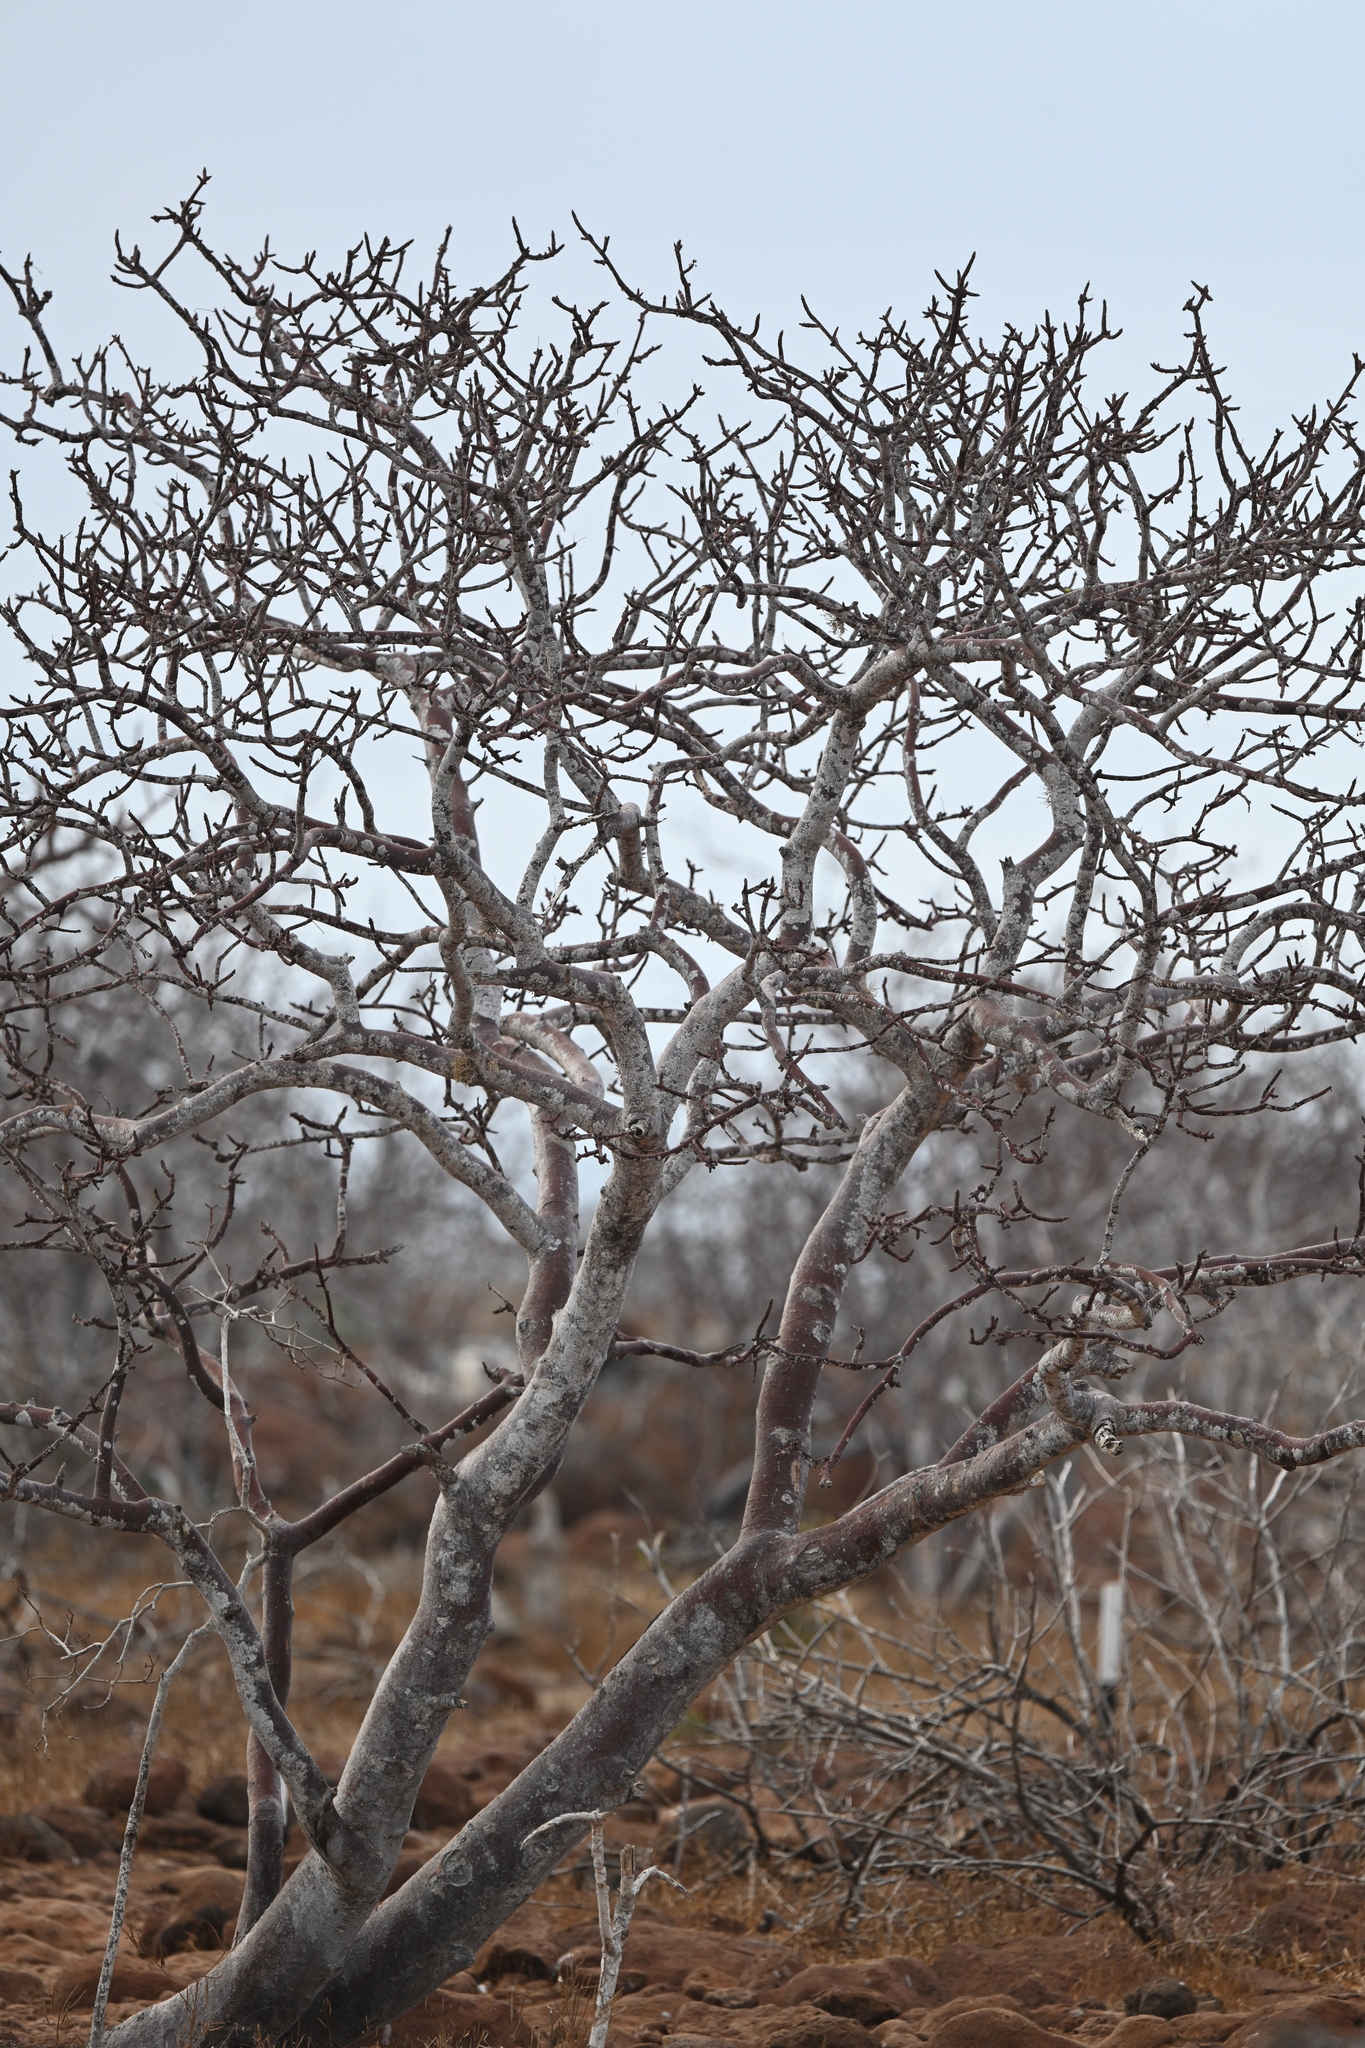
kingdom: Plantae
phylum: Tracheophyta
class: Magnoliopsida
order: Sapindales
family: Burseraceae
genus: Bursera
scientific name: Bursera graveolens
